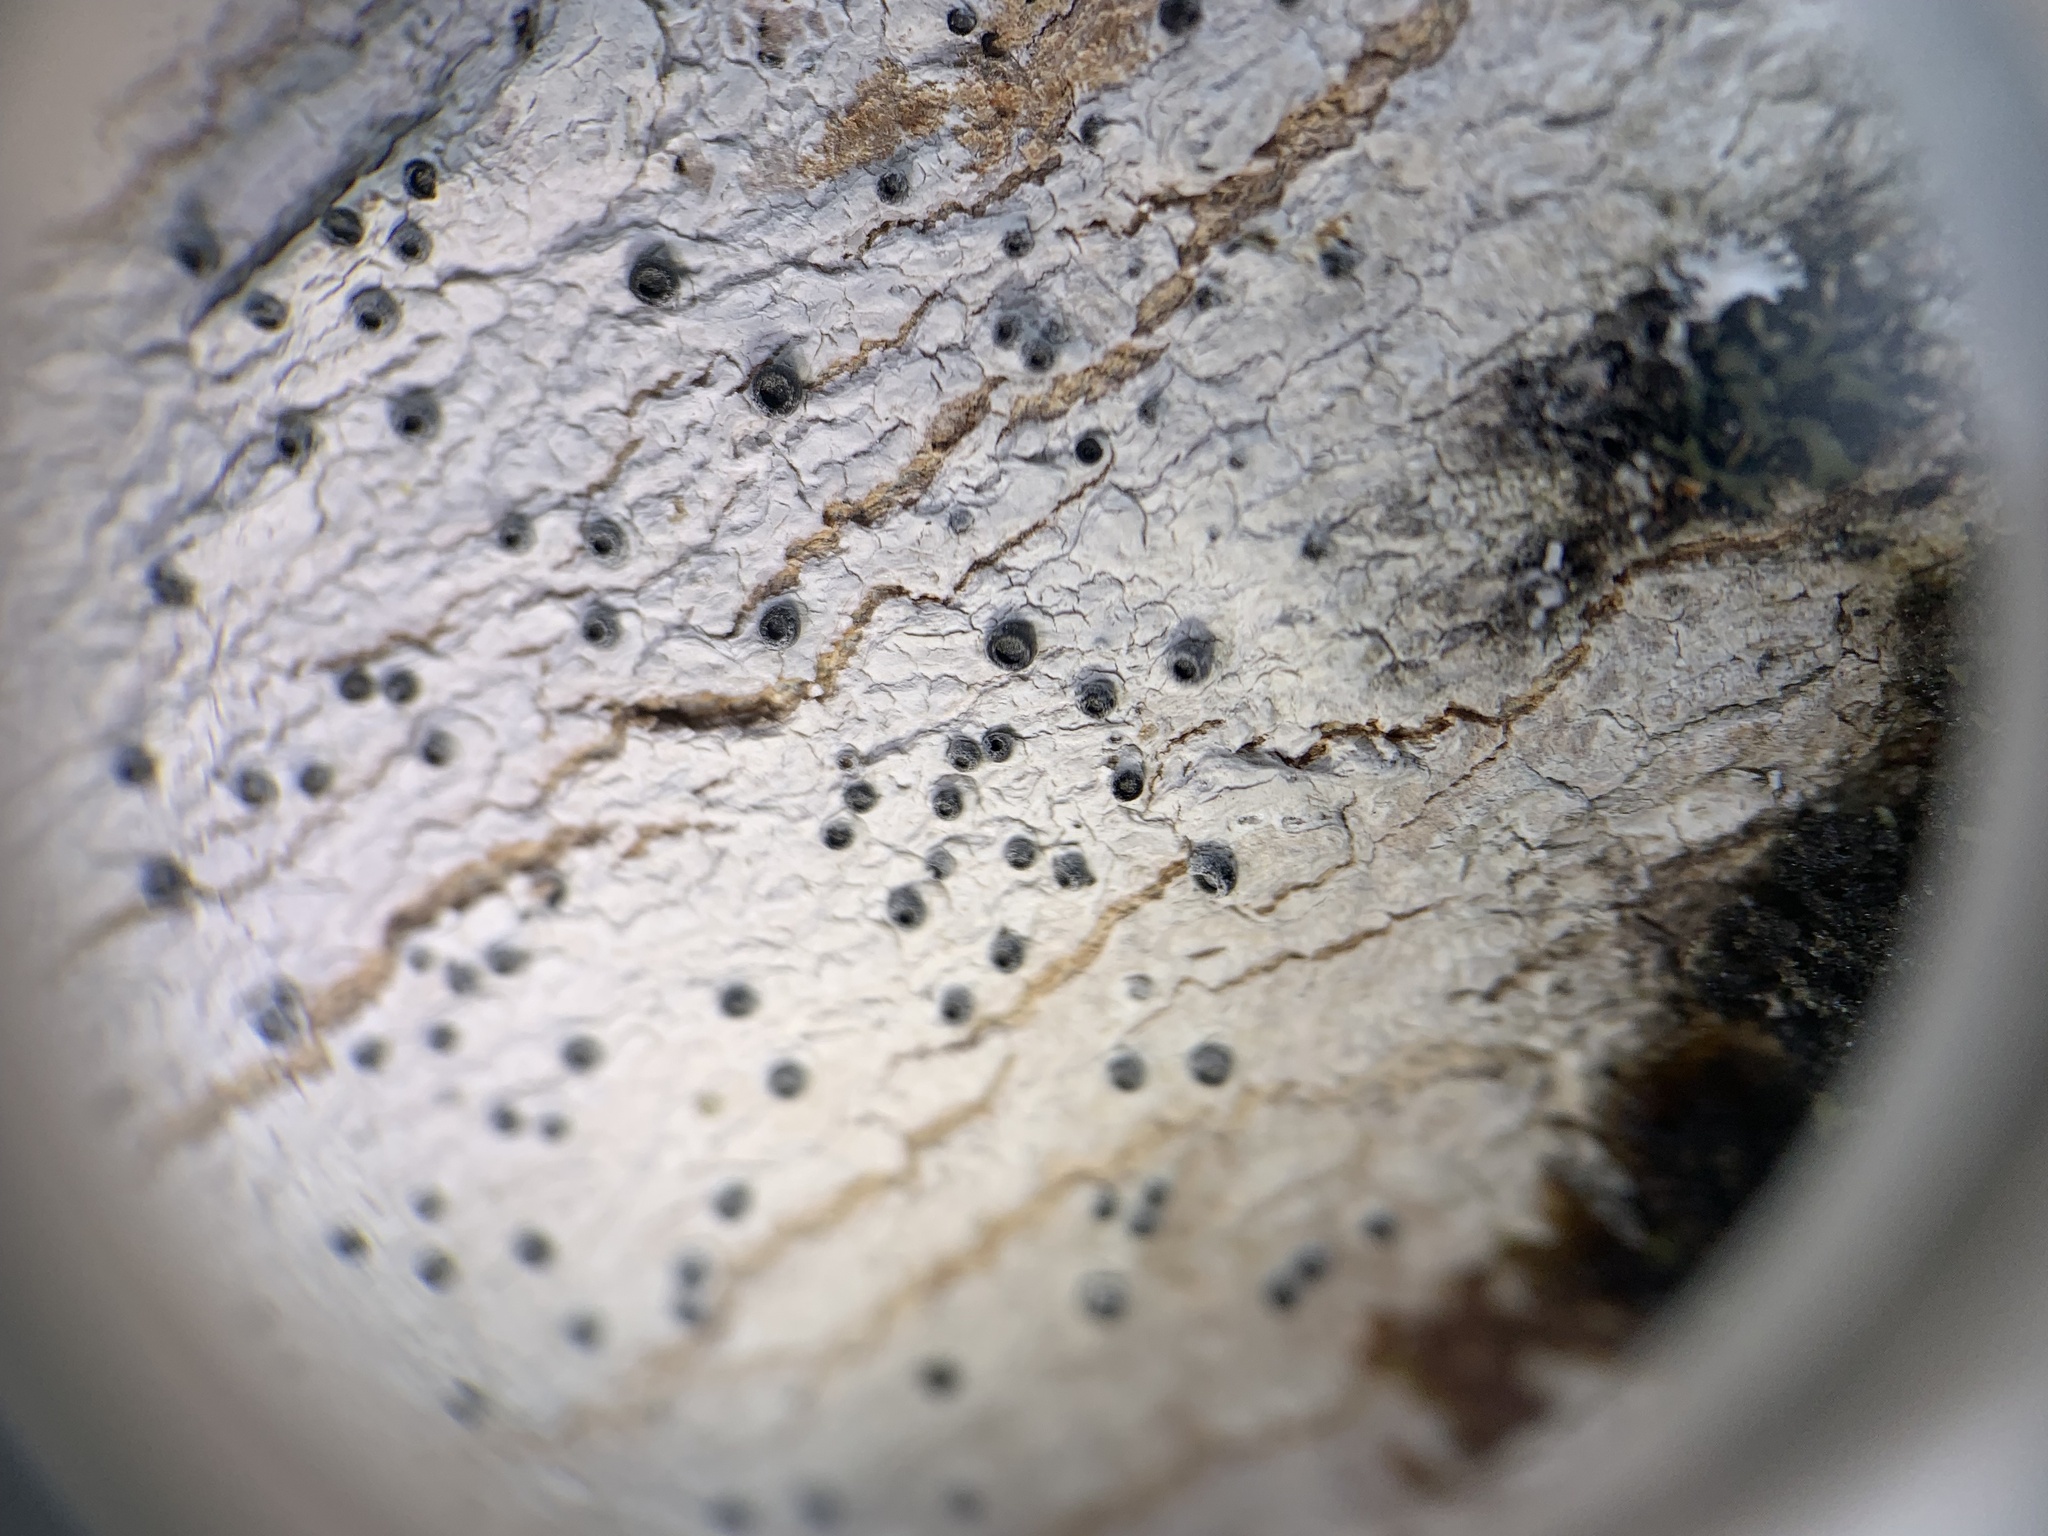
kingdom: Fungi
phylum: Ascomycota
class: Lecanoromycetes
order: Ostropales
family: Stictidaceae
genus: Stictis
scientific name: Stictis urceolata
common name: Can-of-worms lichen
